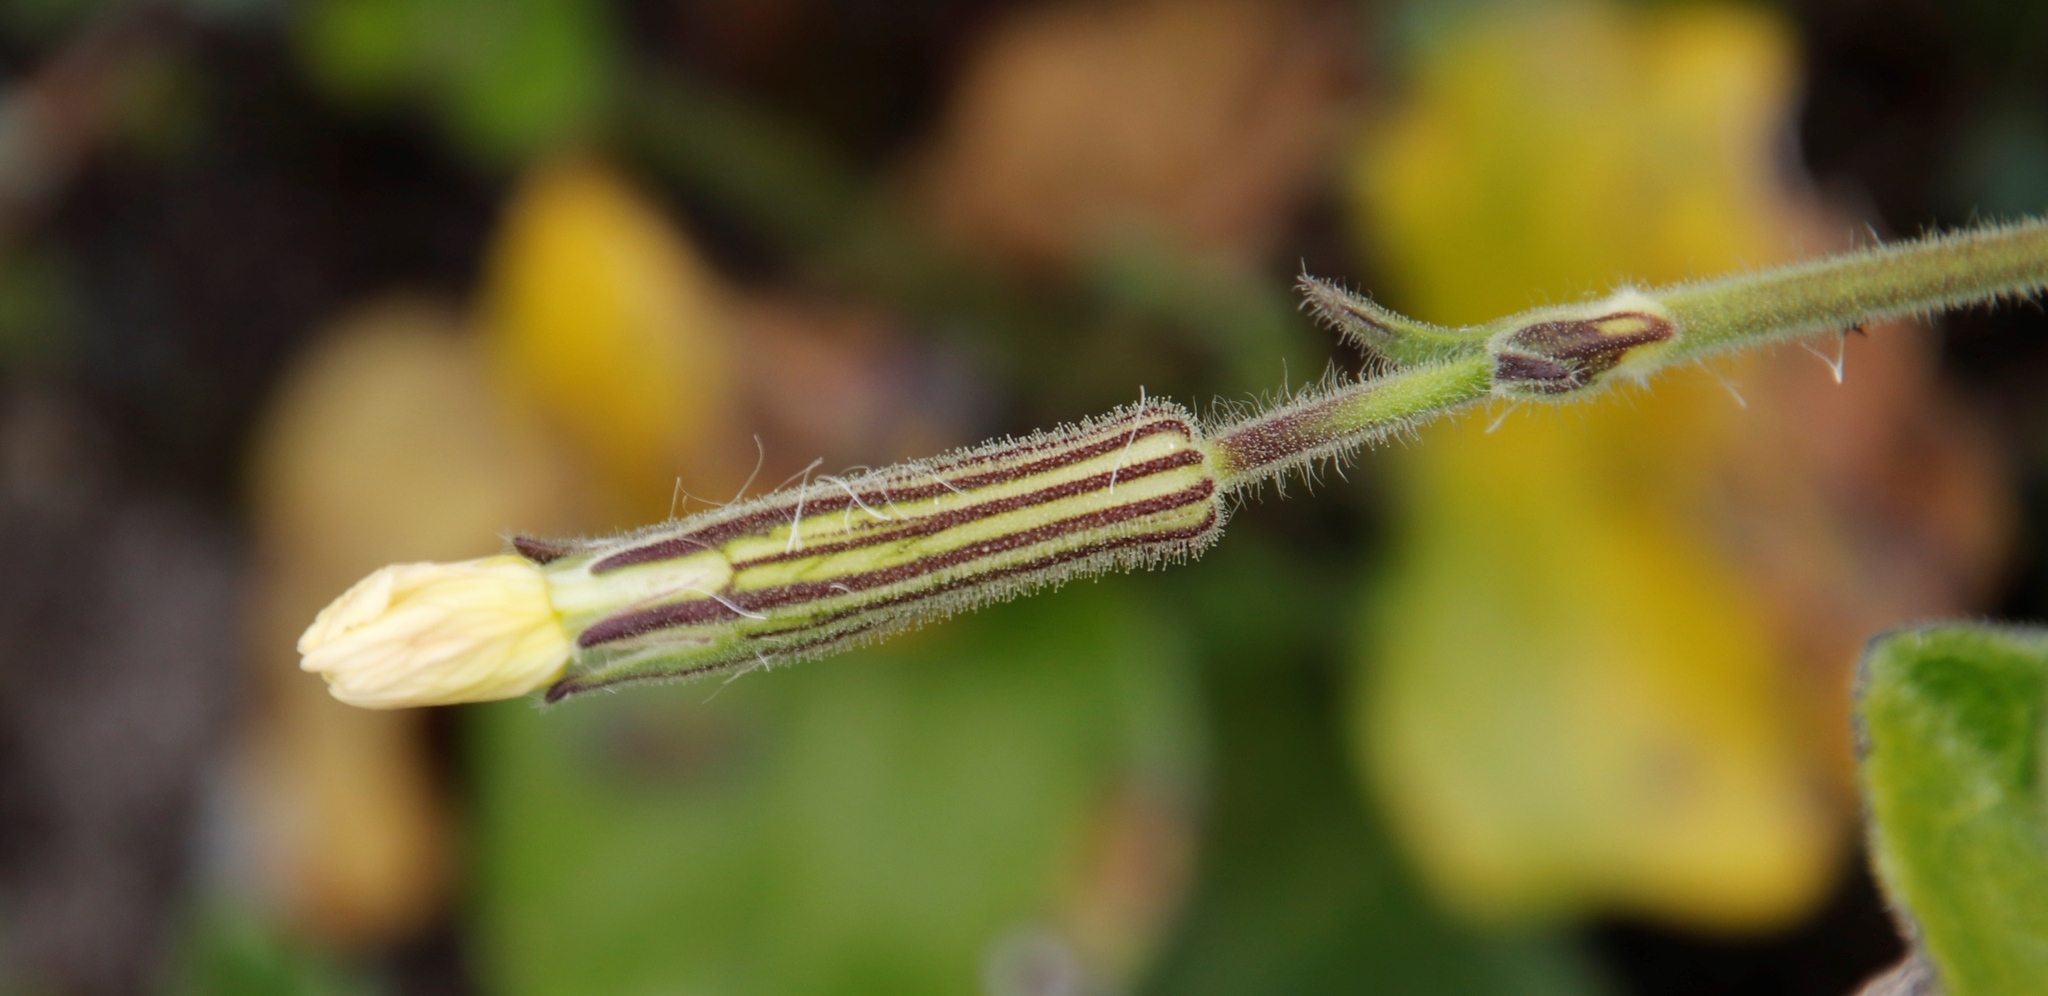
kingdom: Plantae
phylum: Tracheophyta
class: Magnoliopsida
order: Caryophyllales
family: Caryophyllaceae
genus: Silene
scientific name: Silene undulata
